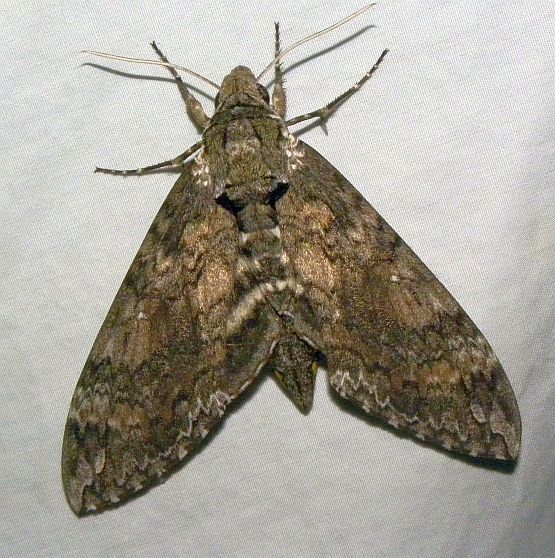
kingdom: Animalia
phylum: Arthropoda
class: Insecta
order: Lepidoptera
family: Sphingidae
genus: Manduca
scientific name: Manduca sexta
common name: Carolina sphinx
